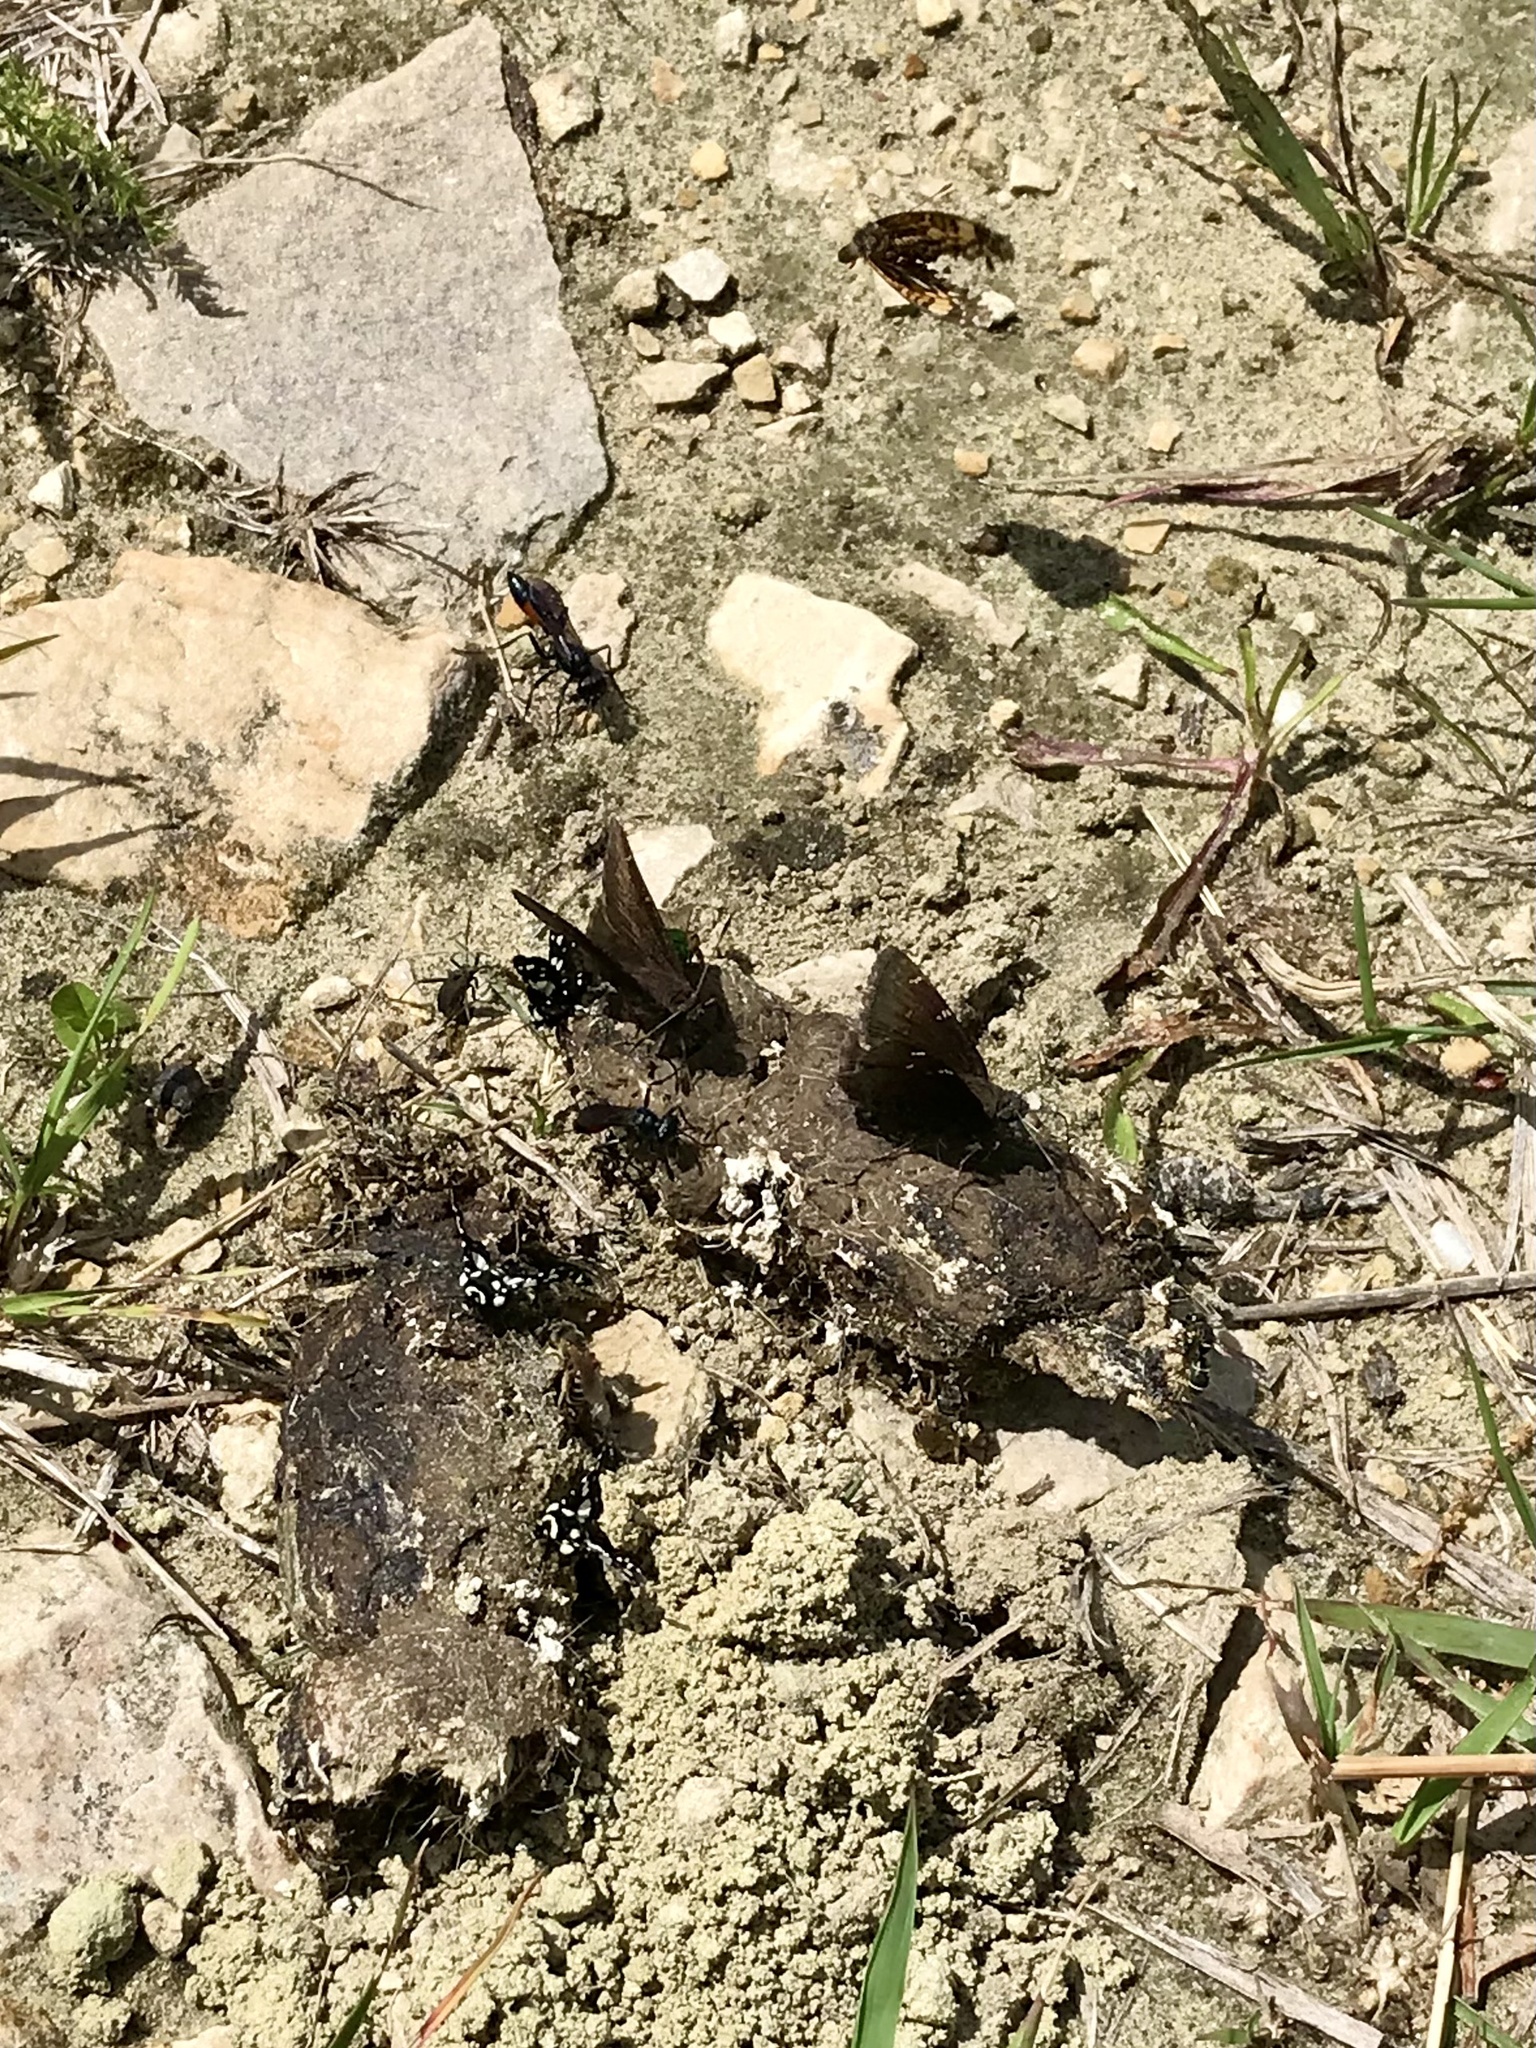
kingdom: Animalia
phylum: Arthropoda
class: Insecta
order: Lepidoptera
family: Hesperiidae
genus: Thorybes
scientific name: Thorybes pylades
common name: Northern cloudywing
